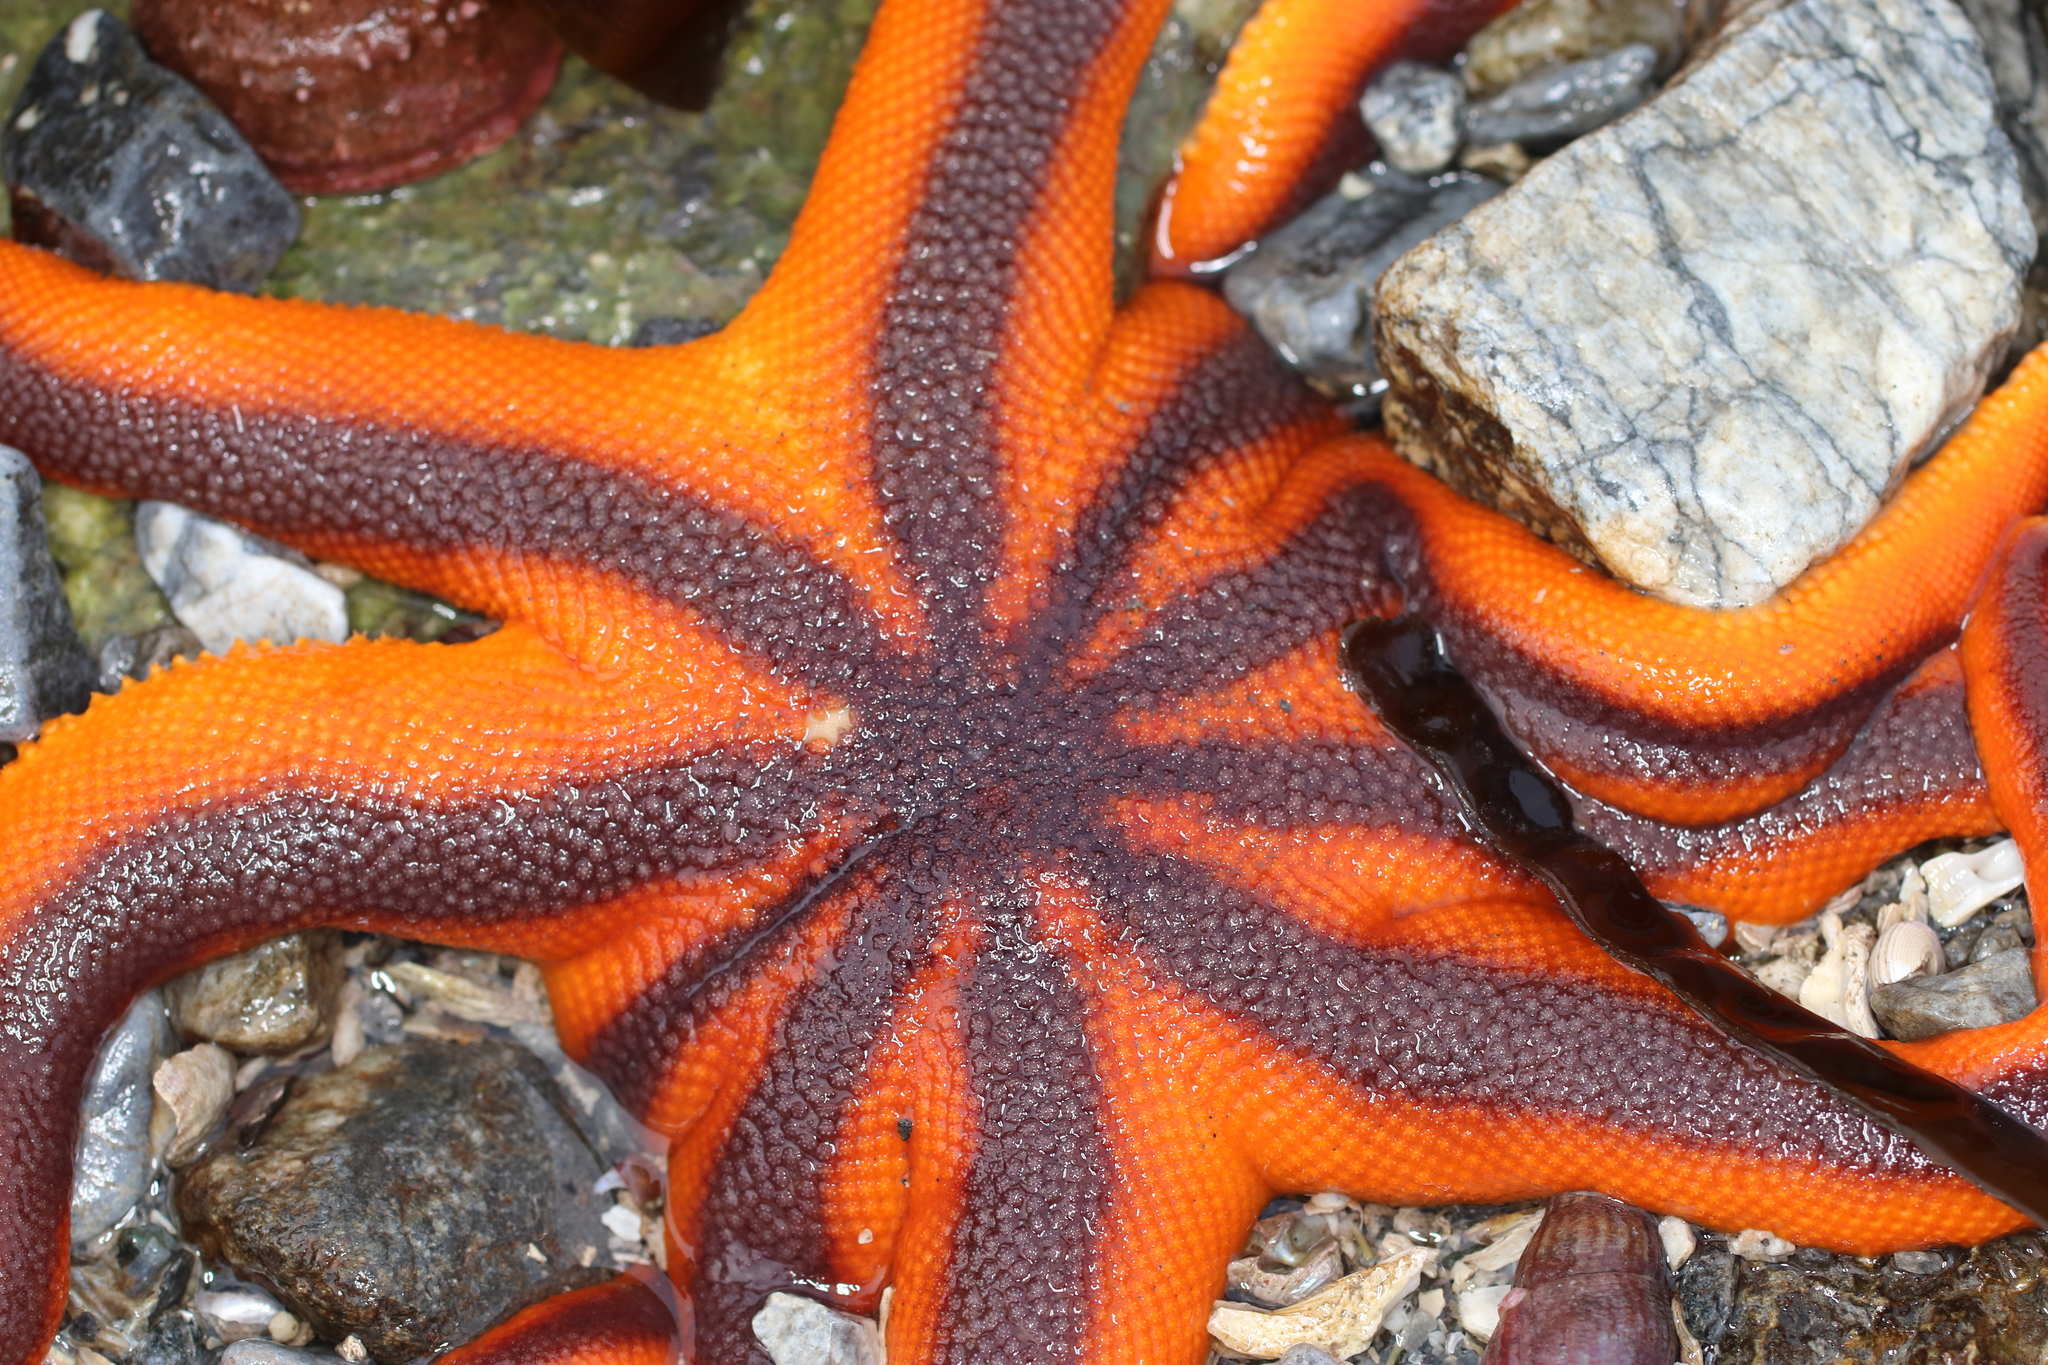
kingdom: Animalia
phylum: Echinodermata
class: Asteroidea
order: Valvatida
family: Solasteridae
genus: Solaster
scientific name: Solaster stimpsoni
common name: Orange sun star
